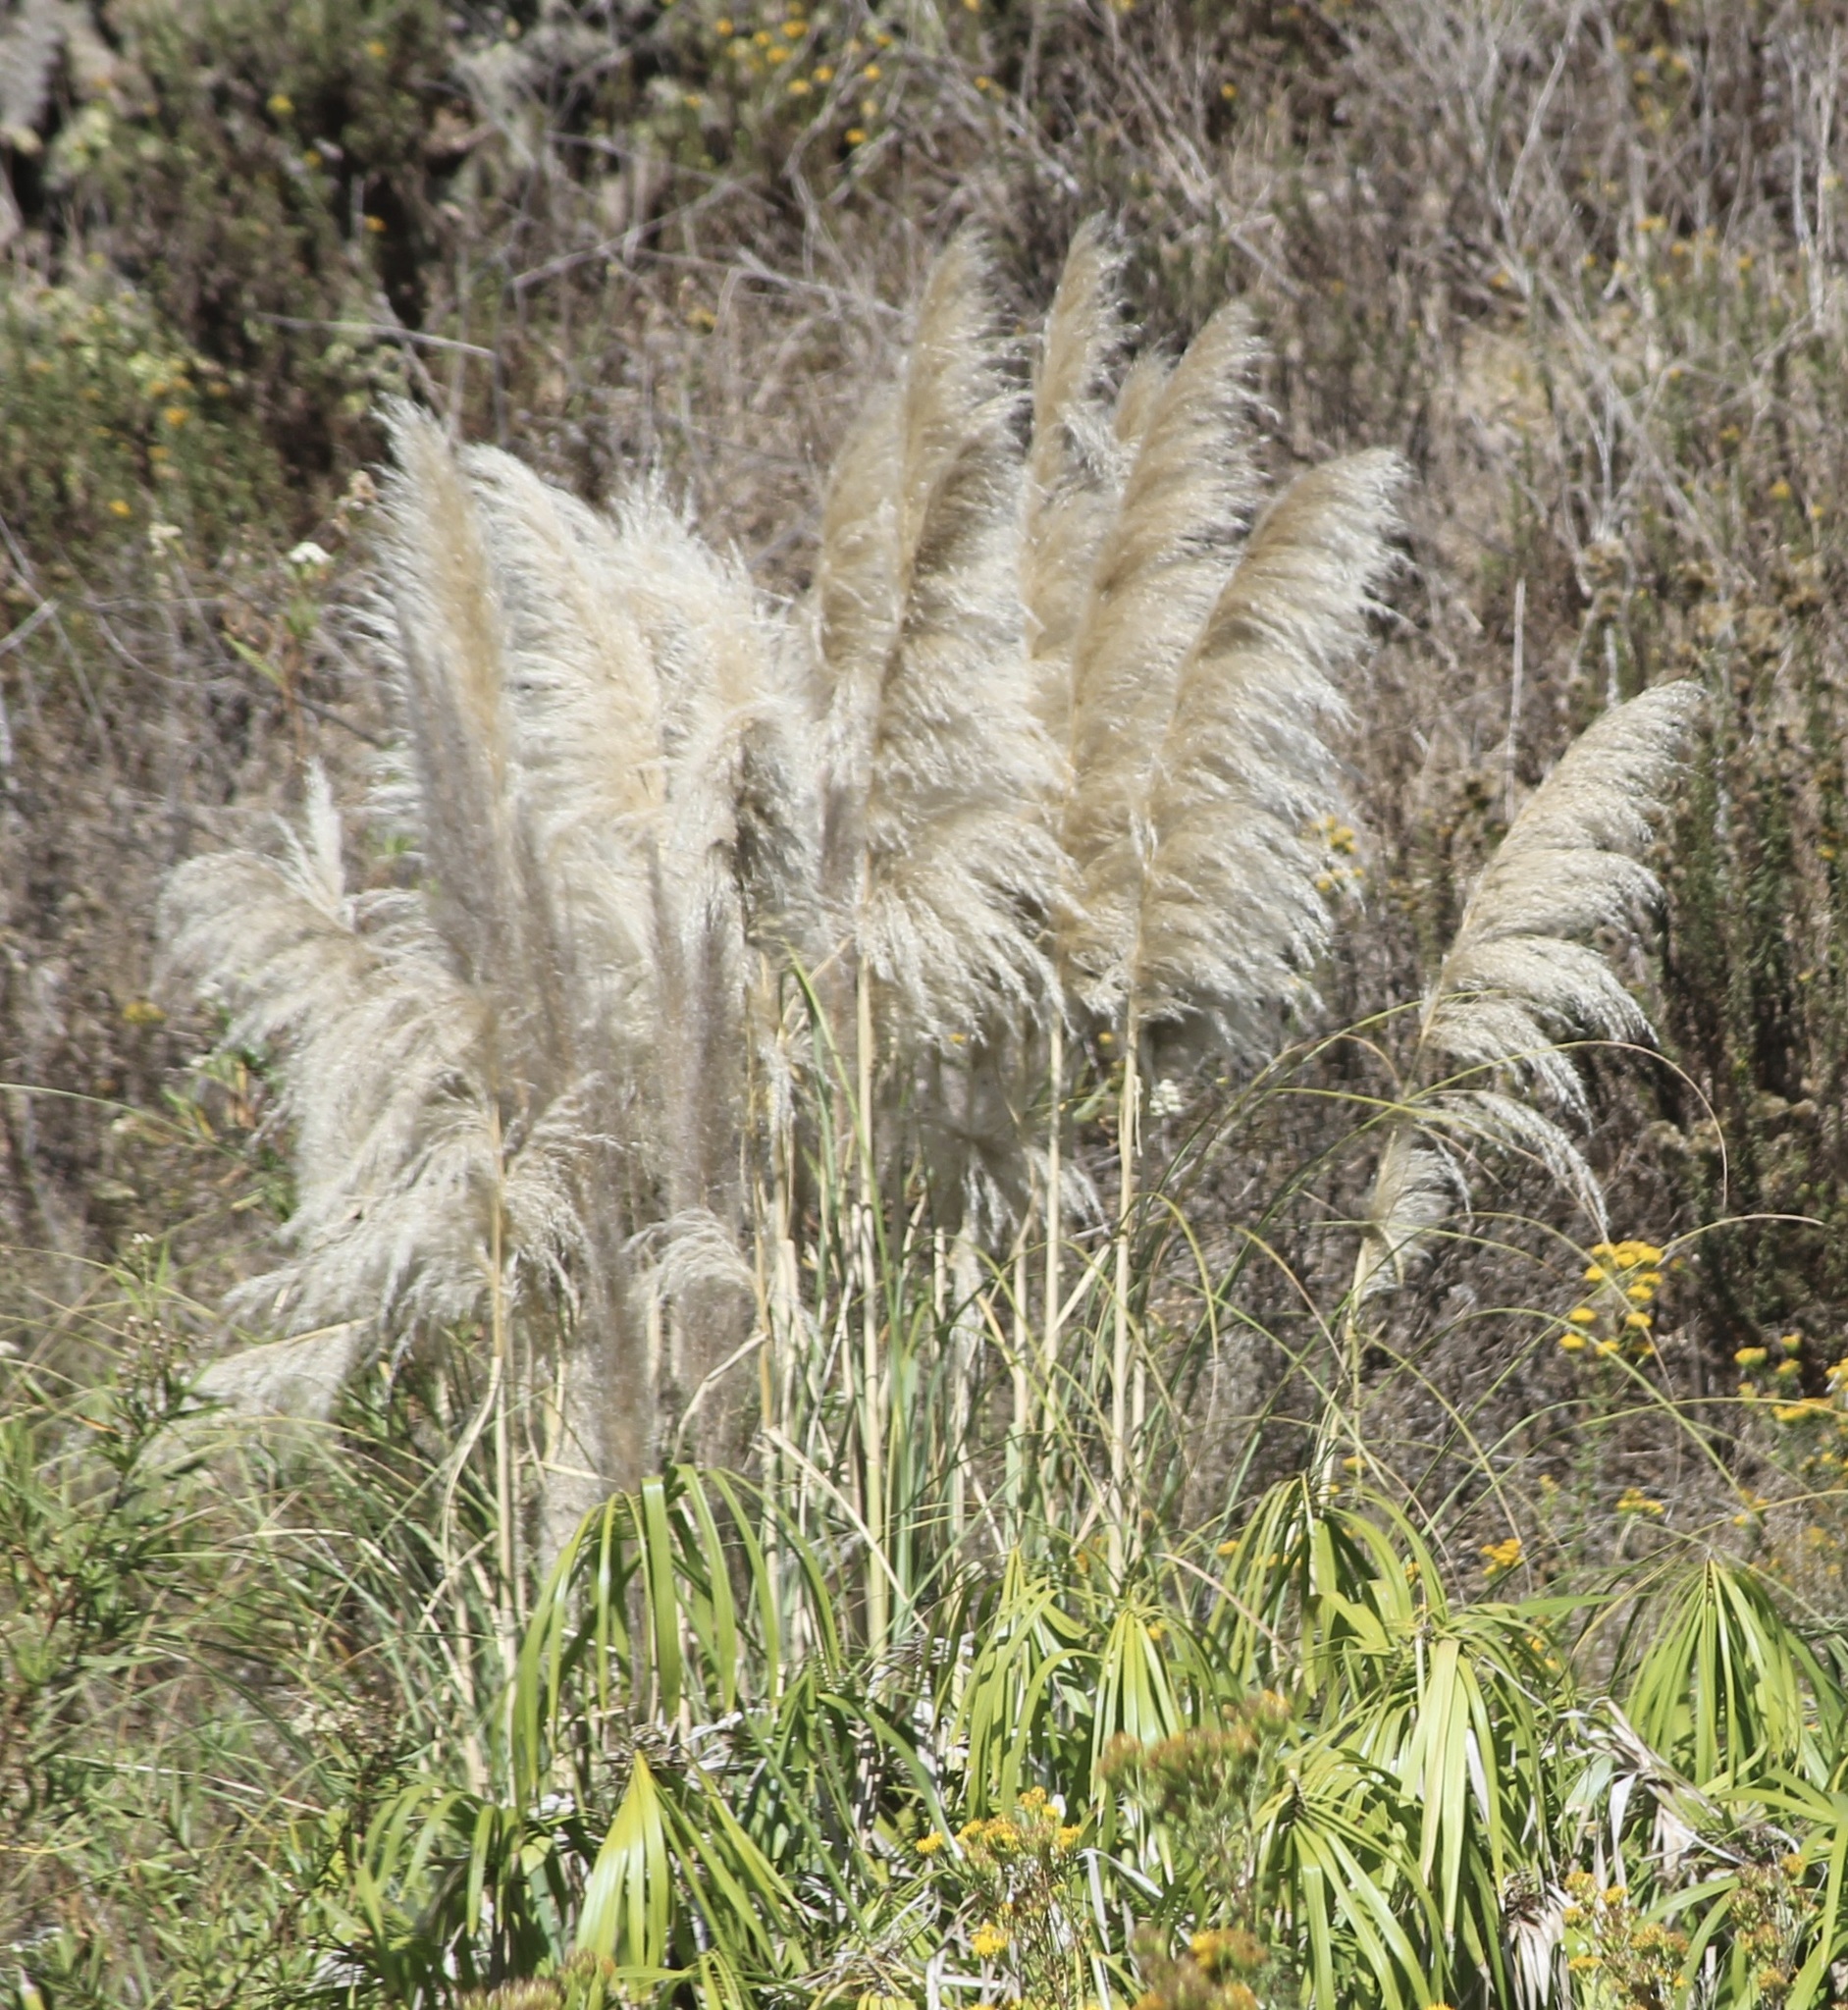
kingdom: Plantae
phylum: Tracheophyta
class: Liliopsida
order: Poales
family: Poaceae
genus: Cortaderia
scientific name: Cortaderia selloana
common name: Uruguayan pampas grass
